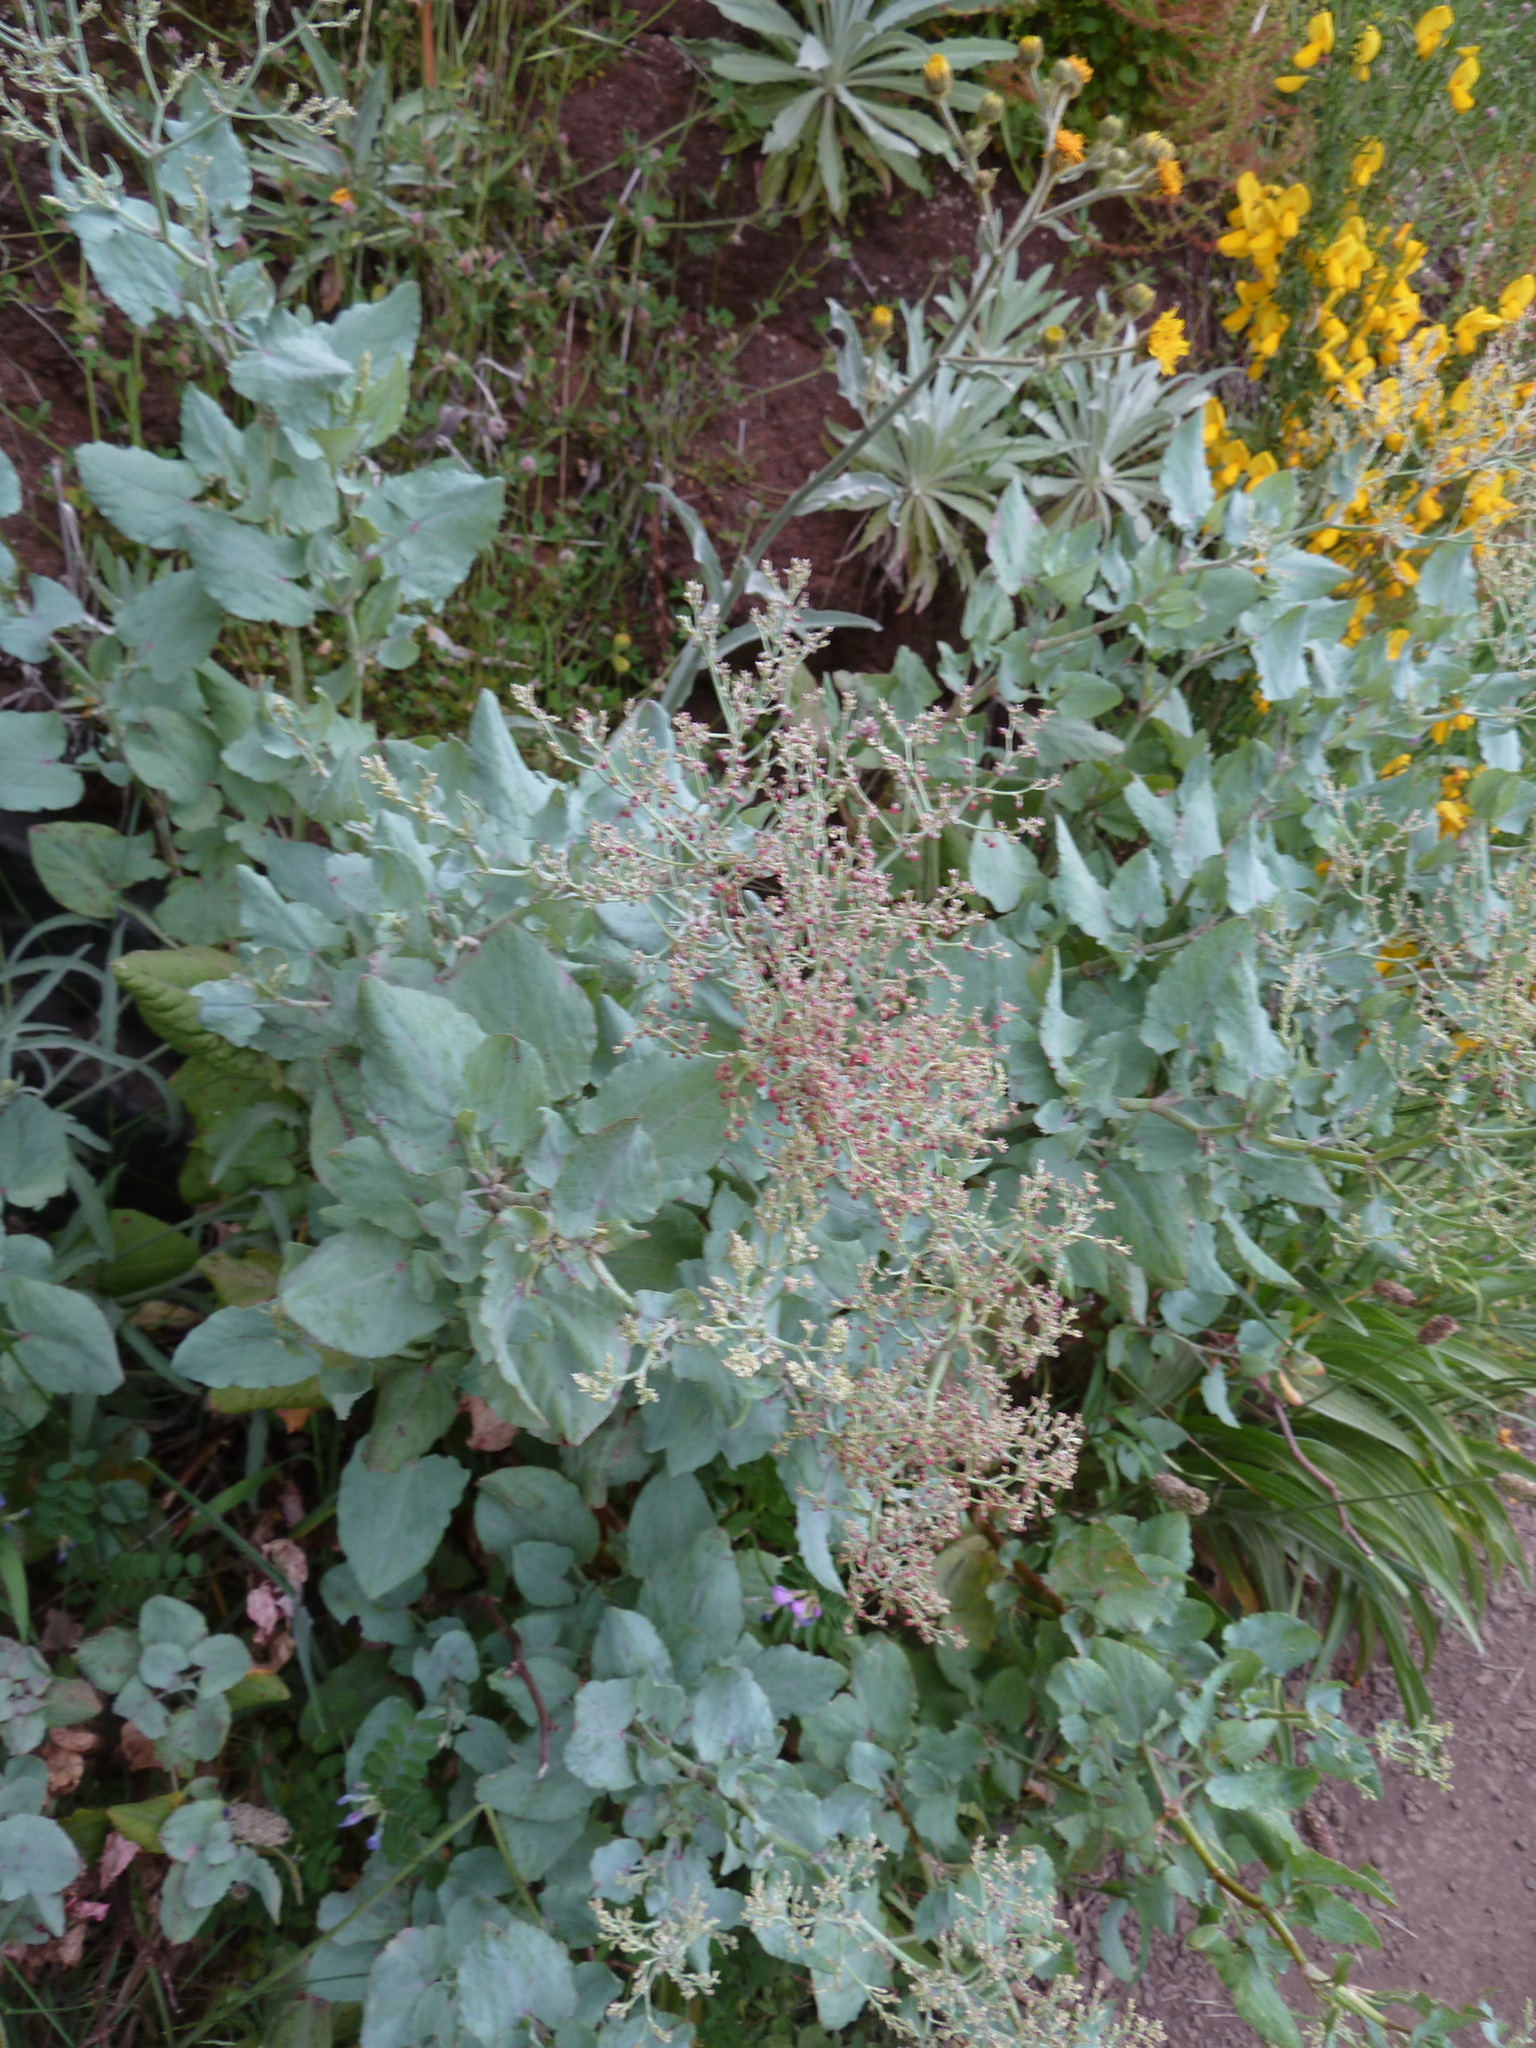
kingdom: Plantae
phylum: Tracheophyta
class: Magnoliopsida
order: Caryophyllales
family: Polygonaceae
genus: Rumex
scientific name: Rumex maderensis
